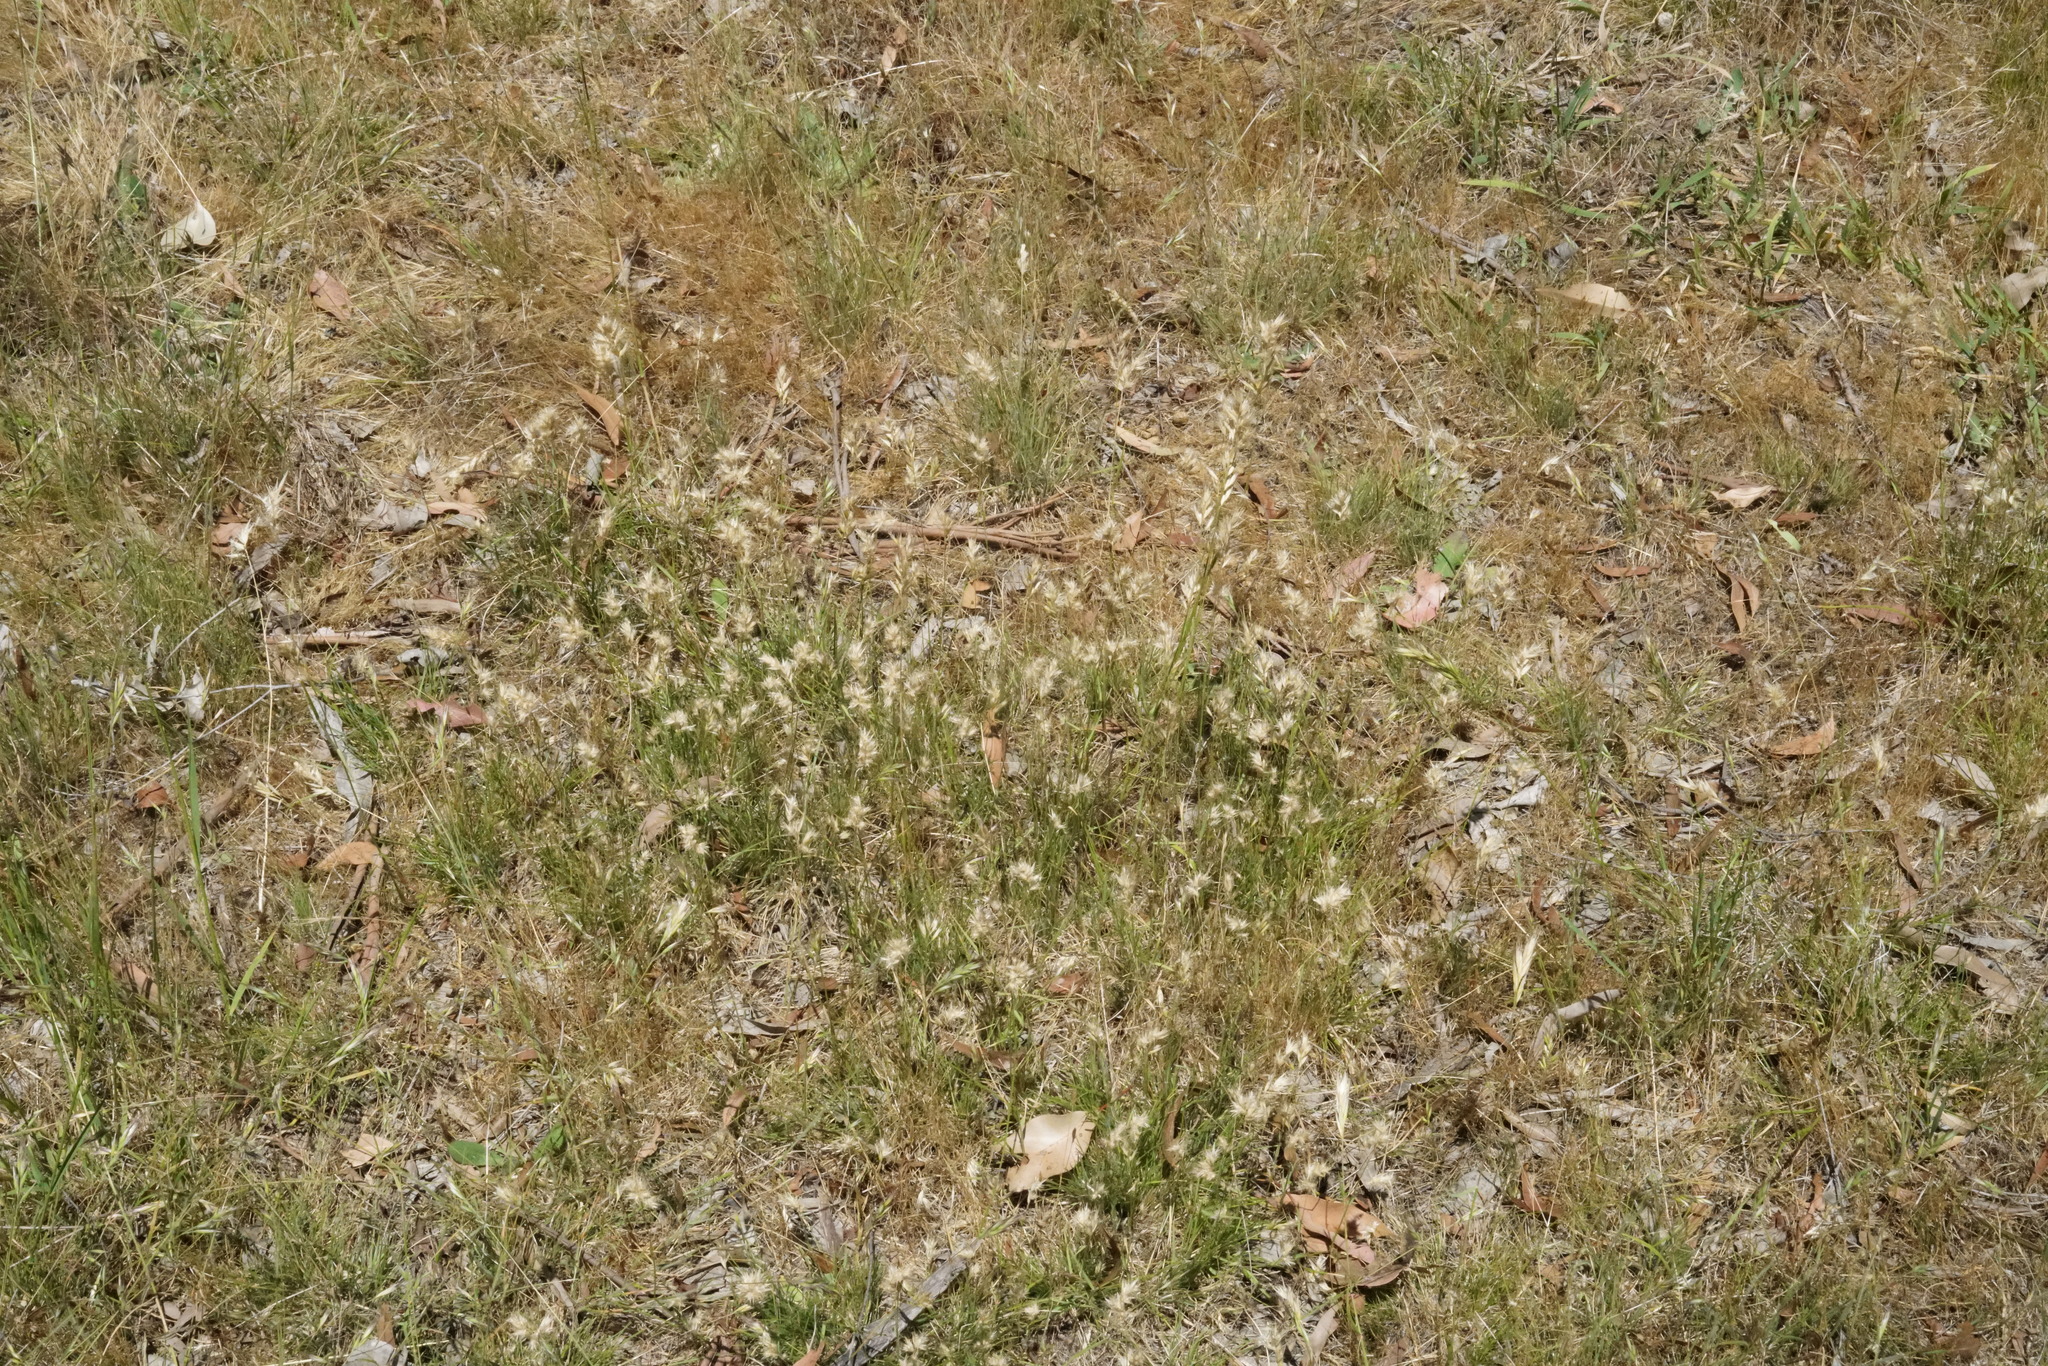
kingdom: Plantae
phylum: Tracheophyta
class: Liliopsida
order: Poales
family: Poaceae
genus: Rytidosperma
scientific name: Rytidosperma erianthum
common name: Hill wallaby grass
